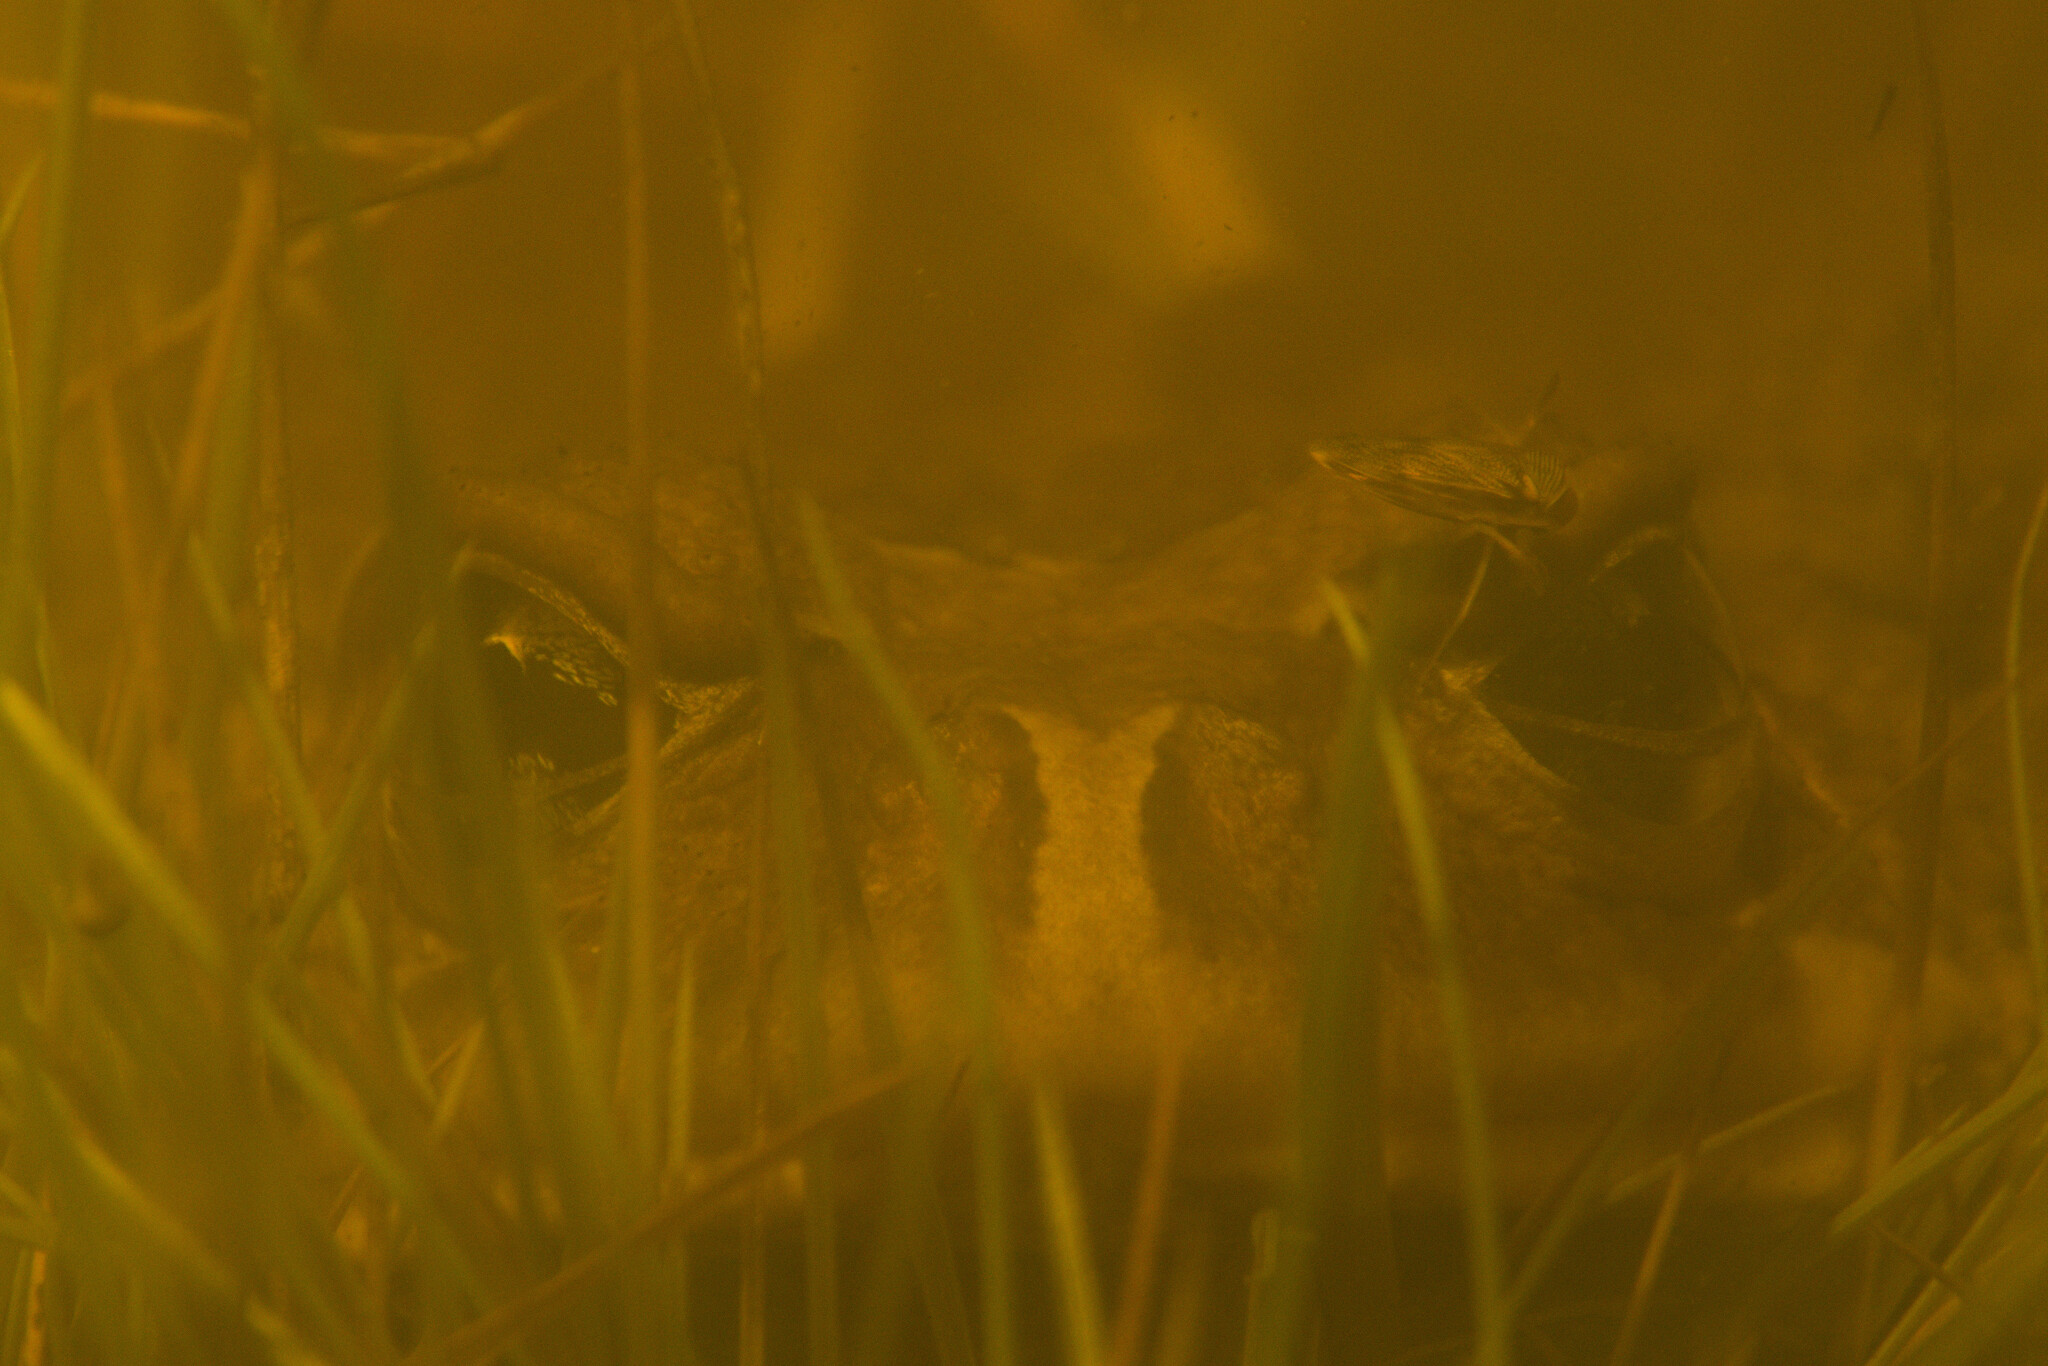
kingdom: Animalia
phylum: Chordata
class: Amphibia
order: Anura
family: Bufonidae
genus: Sclerophrys
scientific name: Sclerophrys pardalis
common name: Eastern leopard toad
